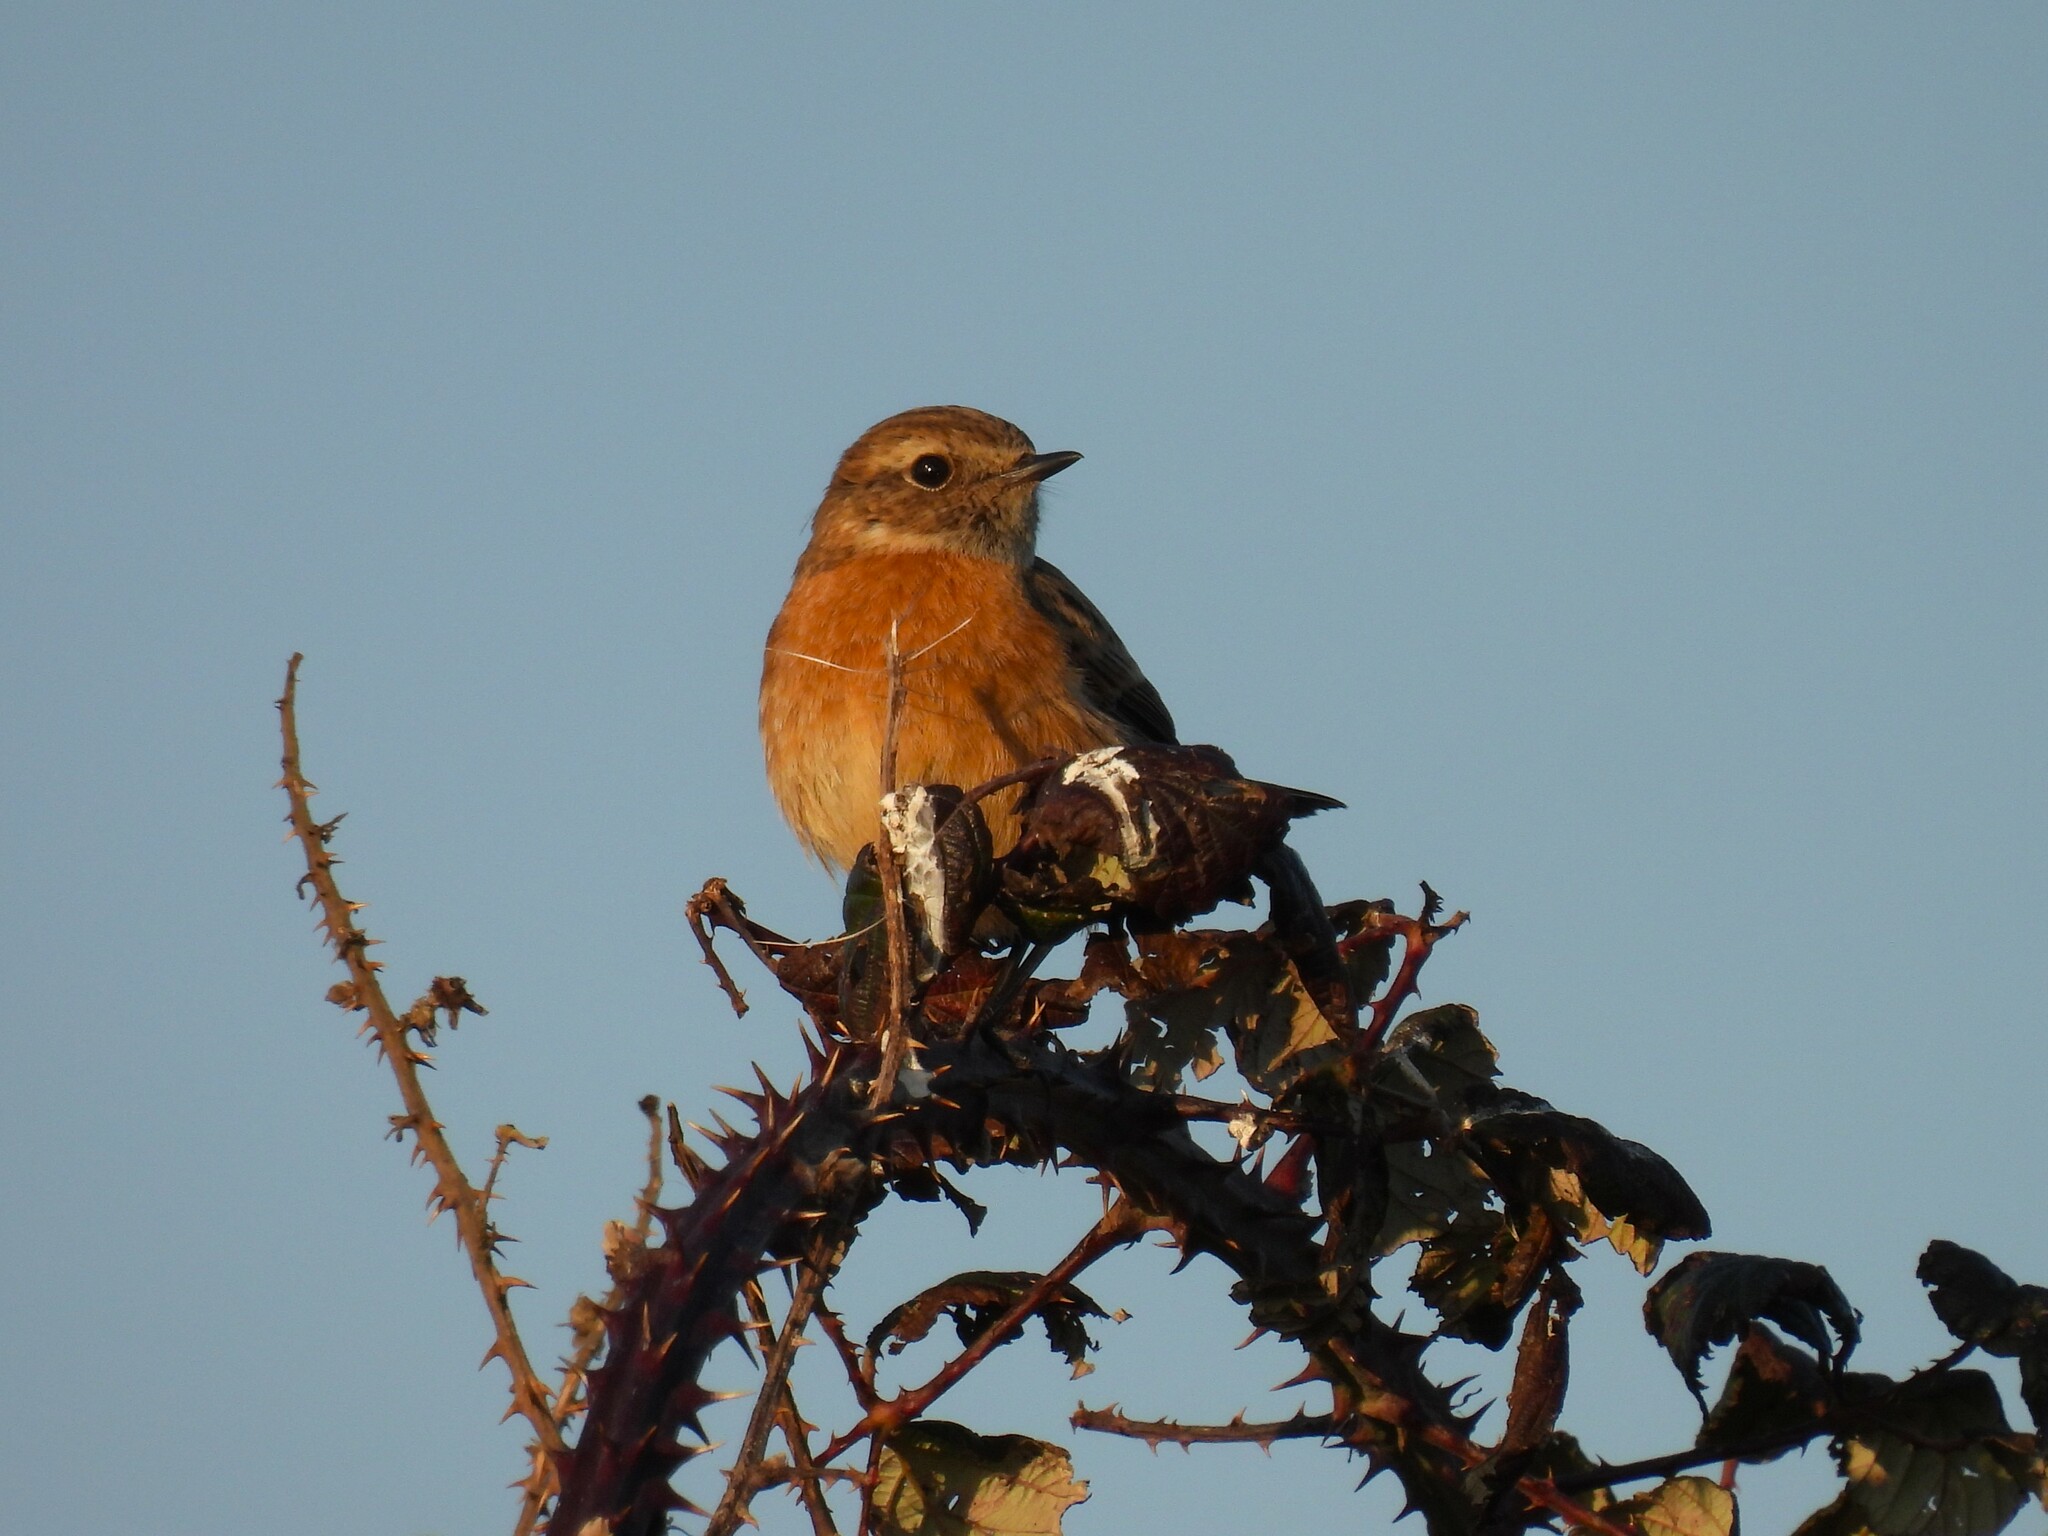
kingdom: Animalia
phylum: Chordata
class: Aves
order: Passeriformes
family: Muscicapidae
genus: Saxicola
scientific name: Saxicola rubicola
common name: European stonechat
